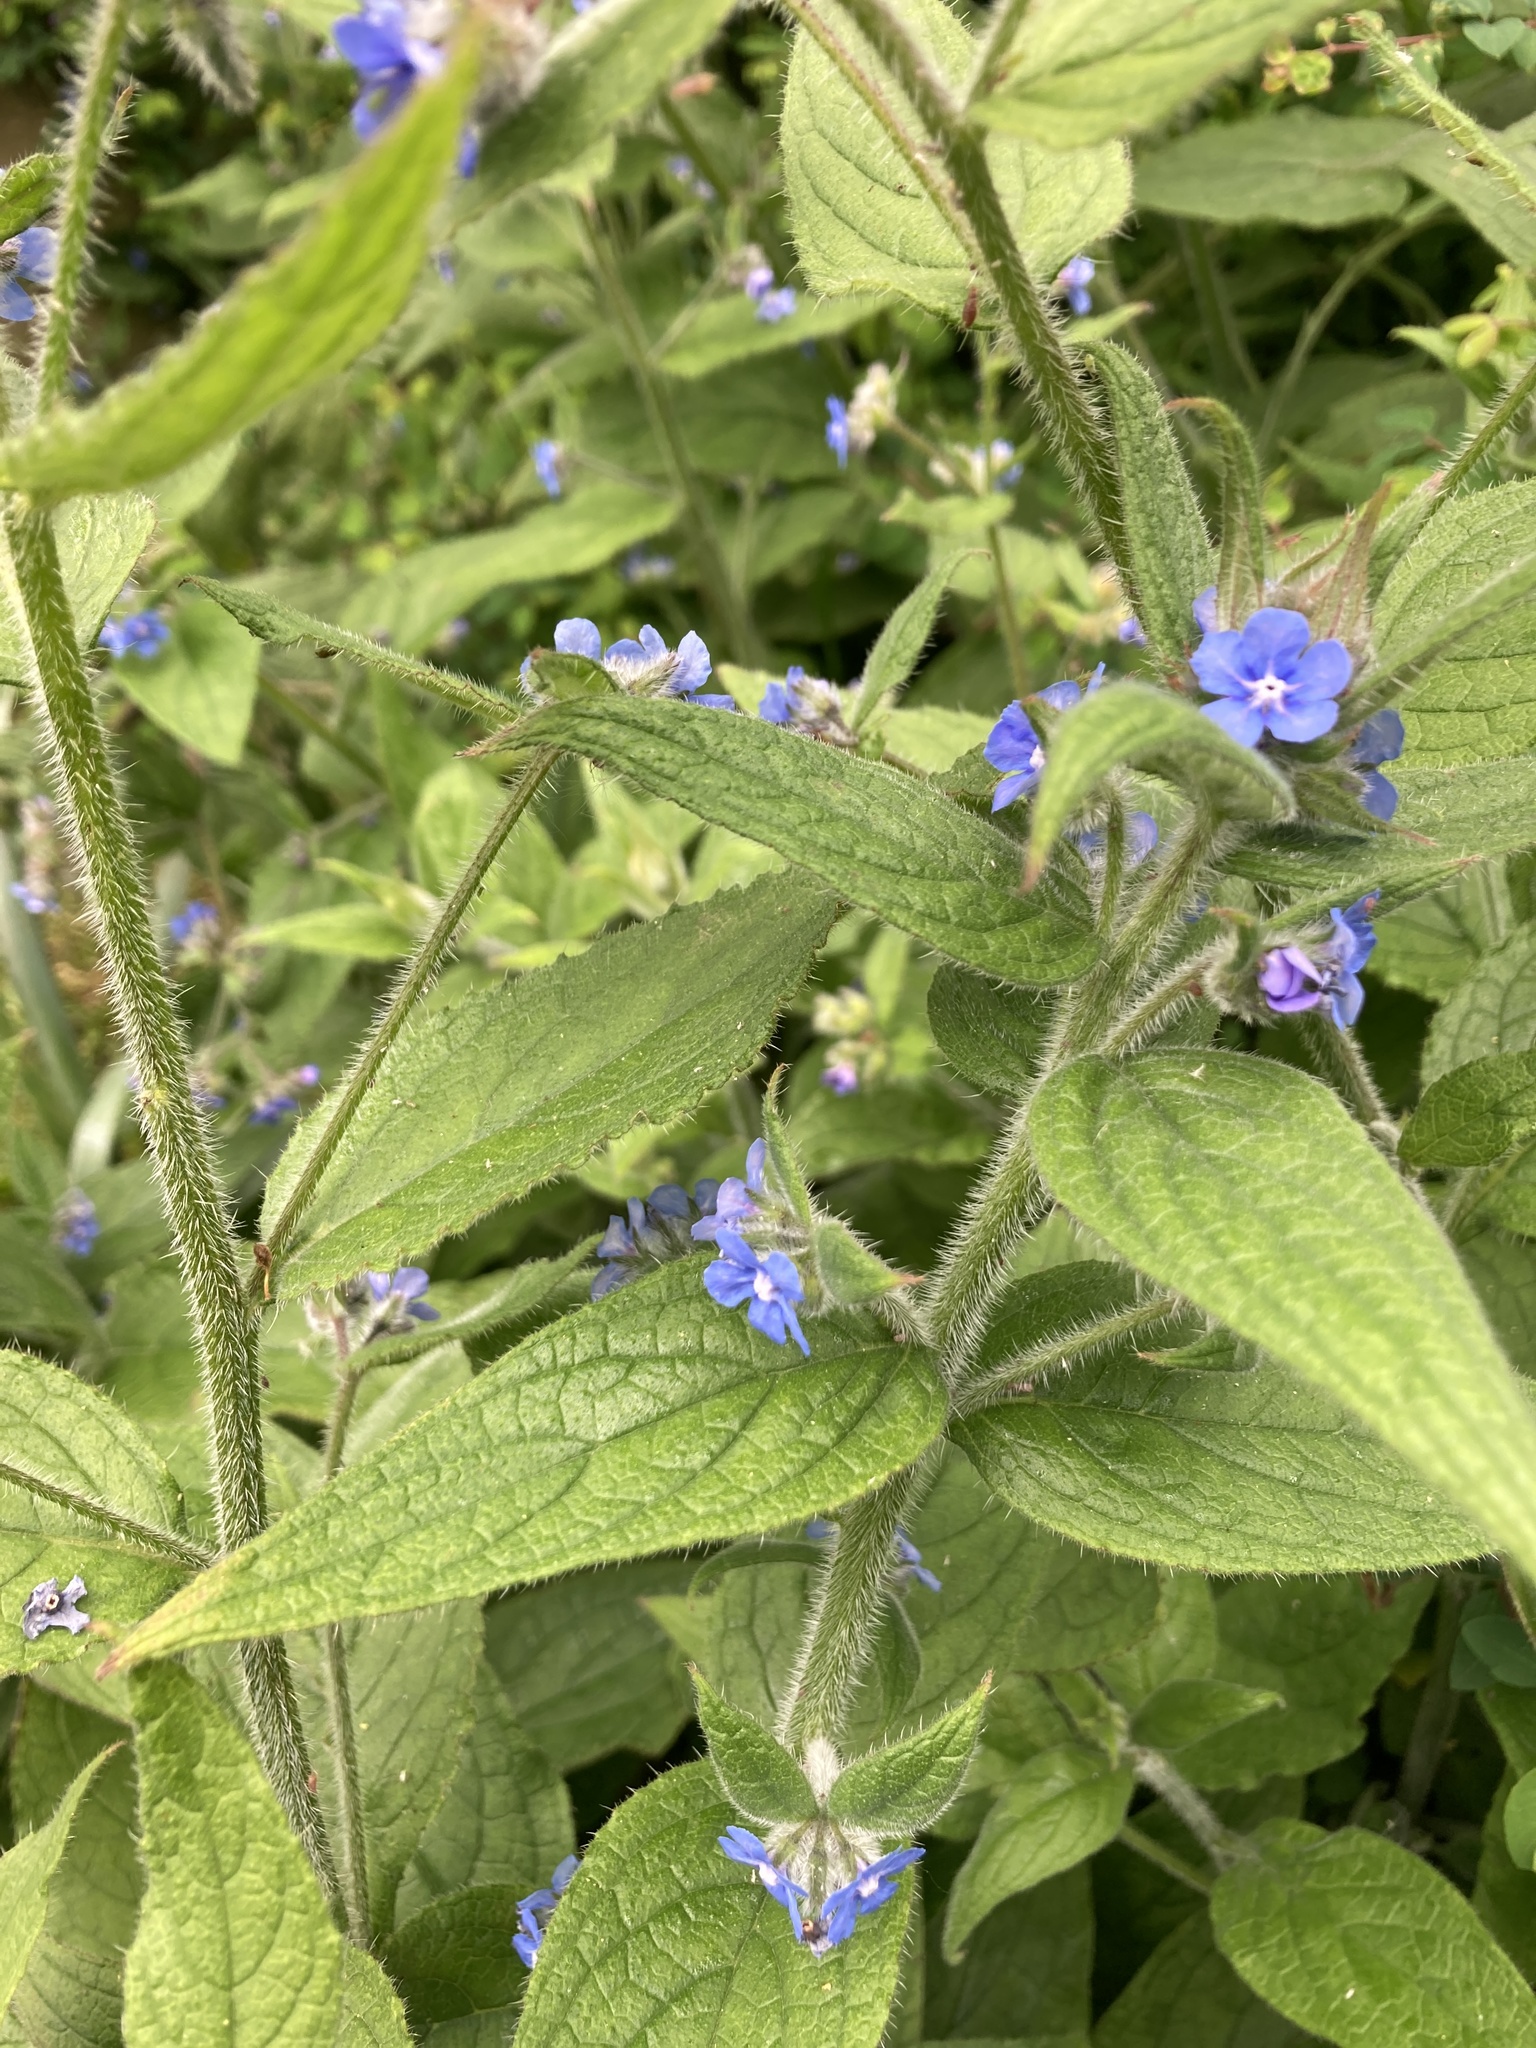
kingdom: Plantae
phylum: Tracheophyta
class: Magnoliopsida
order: Boraginales
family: Boraginaceae
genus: Pentaglottis
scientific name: Pentaglottis sempervirens
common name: Green alkanet
